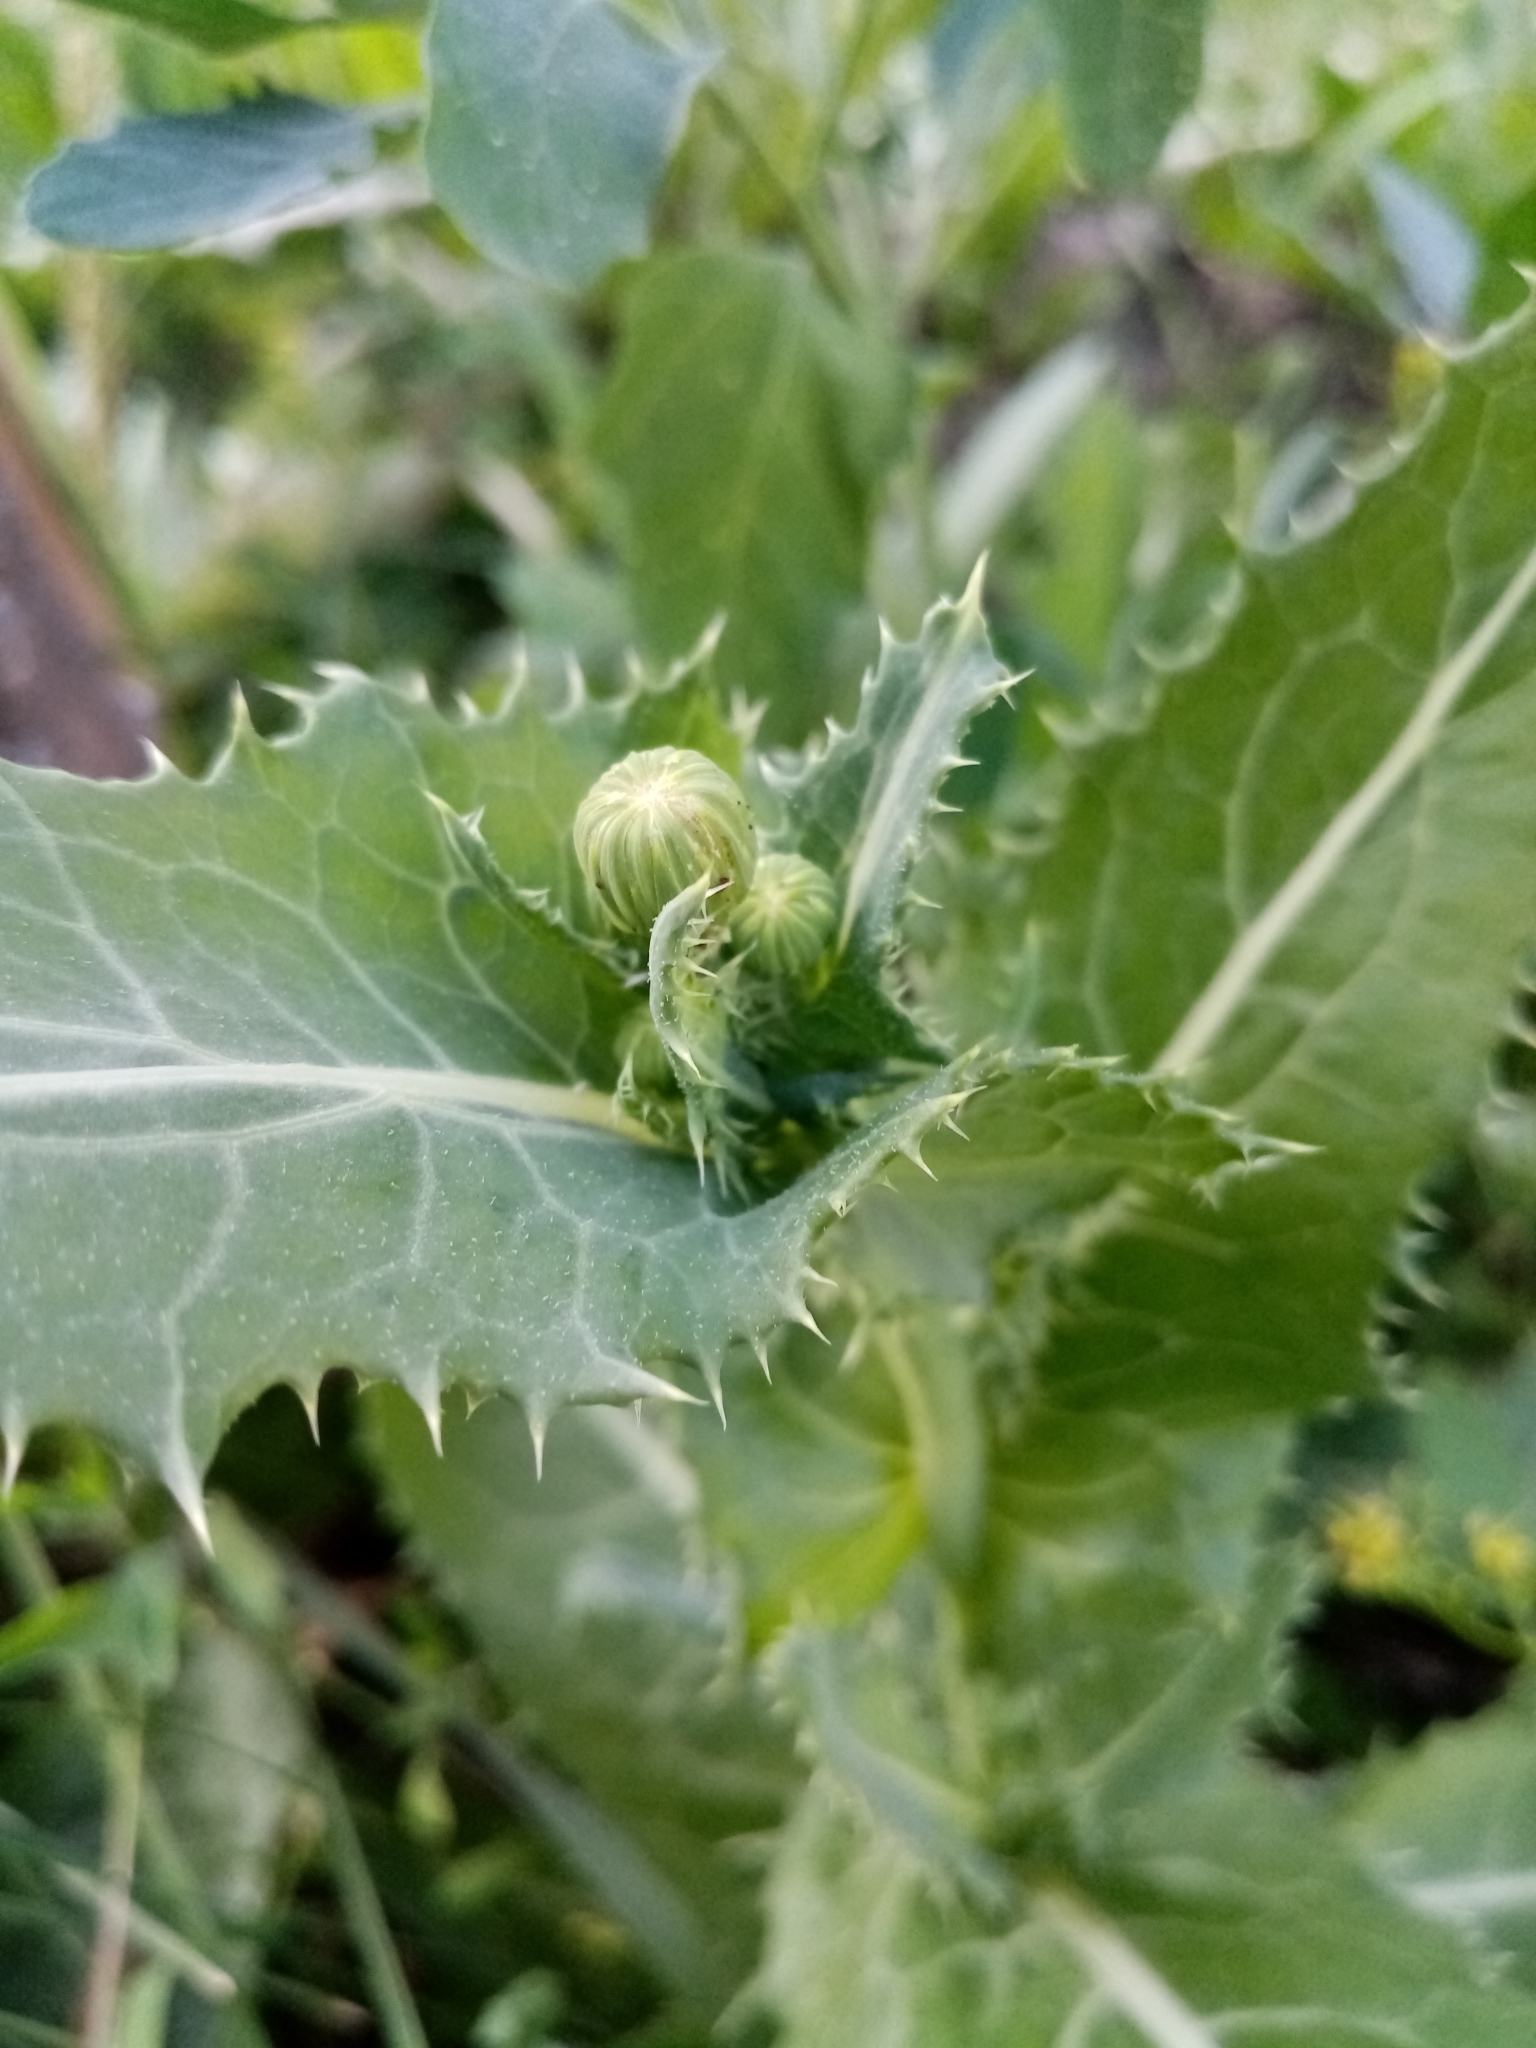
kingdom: Plantae
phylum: Tracheophyta
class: Magnoliopsida
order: Asterales
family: Asteraceae
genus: Sonchus
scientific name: Sonchus asper
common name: Prickly sow-thistle
